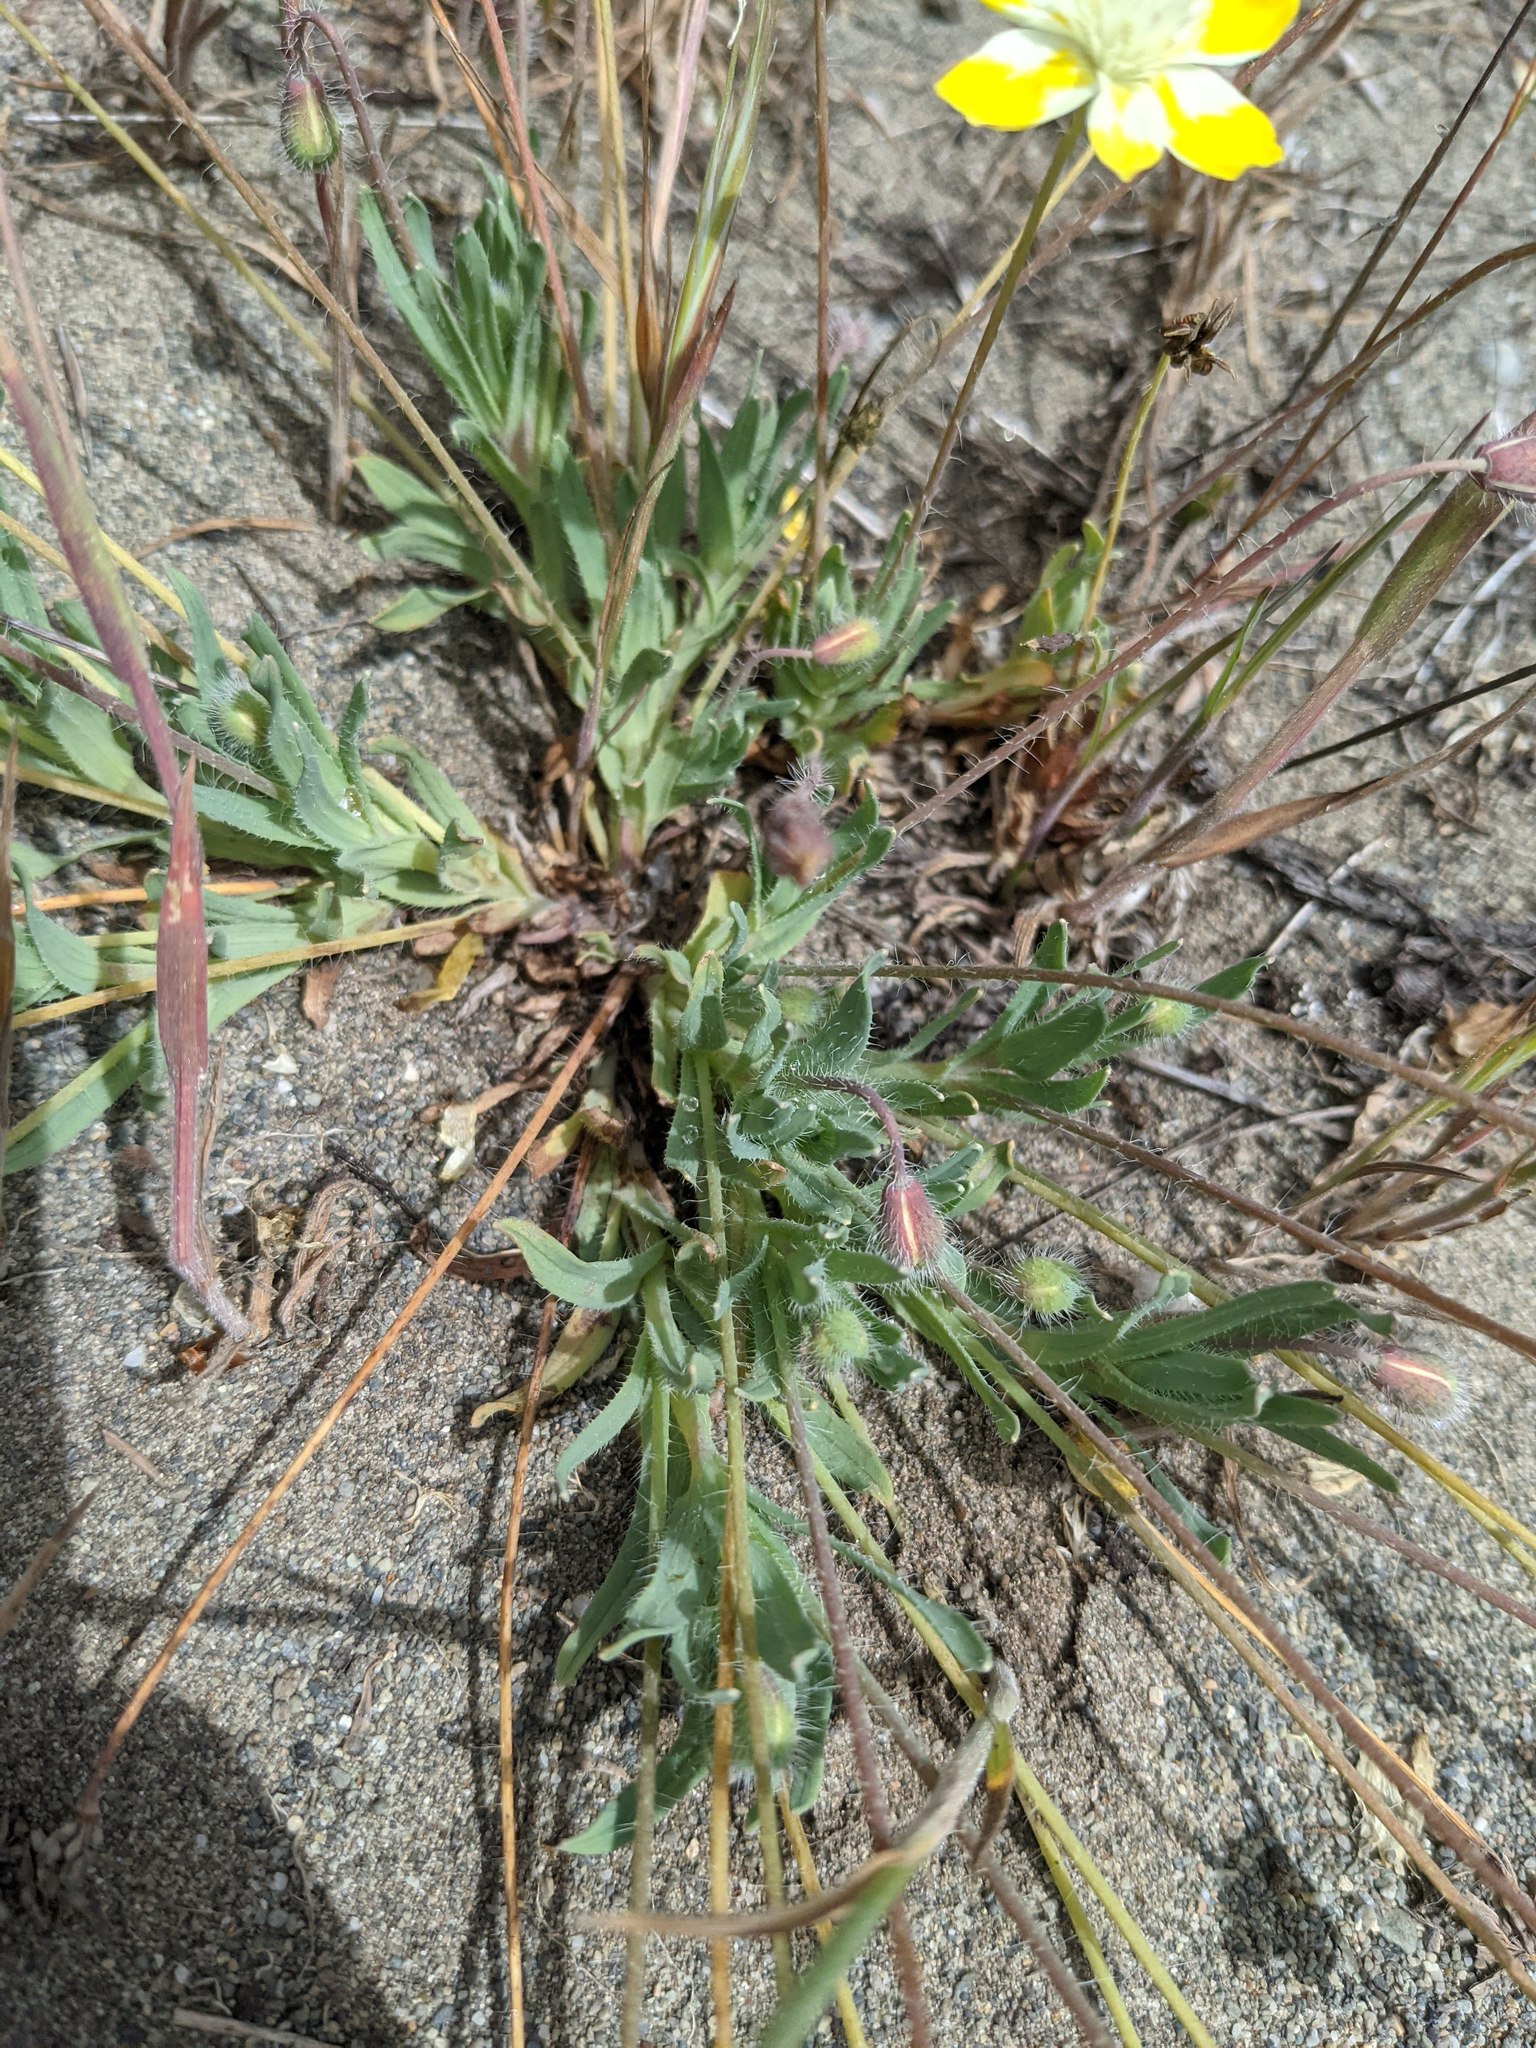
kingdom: Plantae
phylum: Tracheophyta
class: Magnoliopsida
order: Ranunculales
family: Papaveraceae
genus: Platystemon
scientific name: Platystemon californicus
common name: Cream-cups
